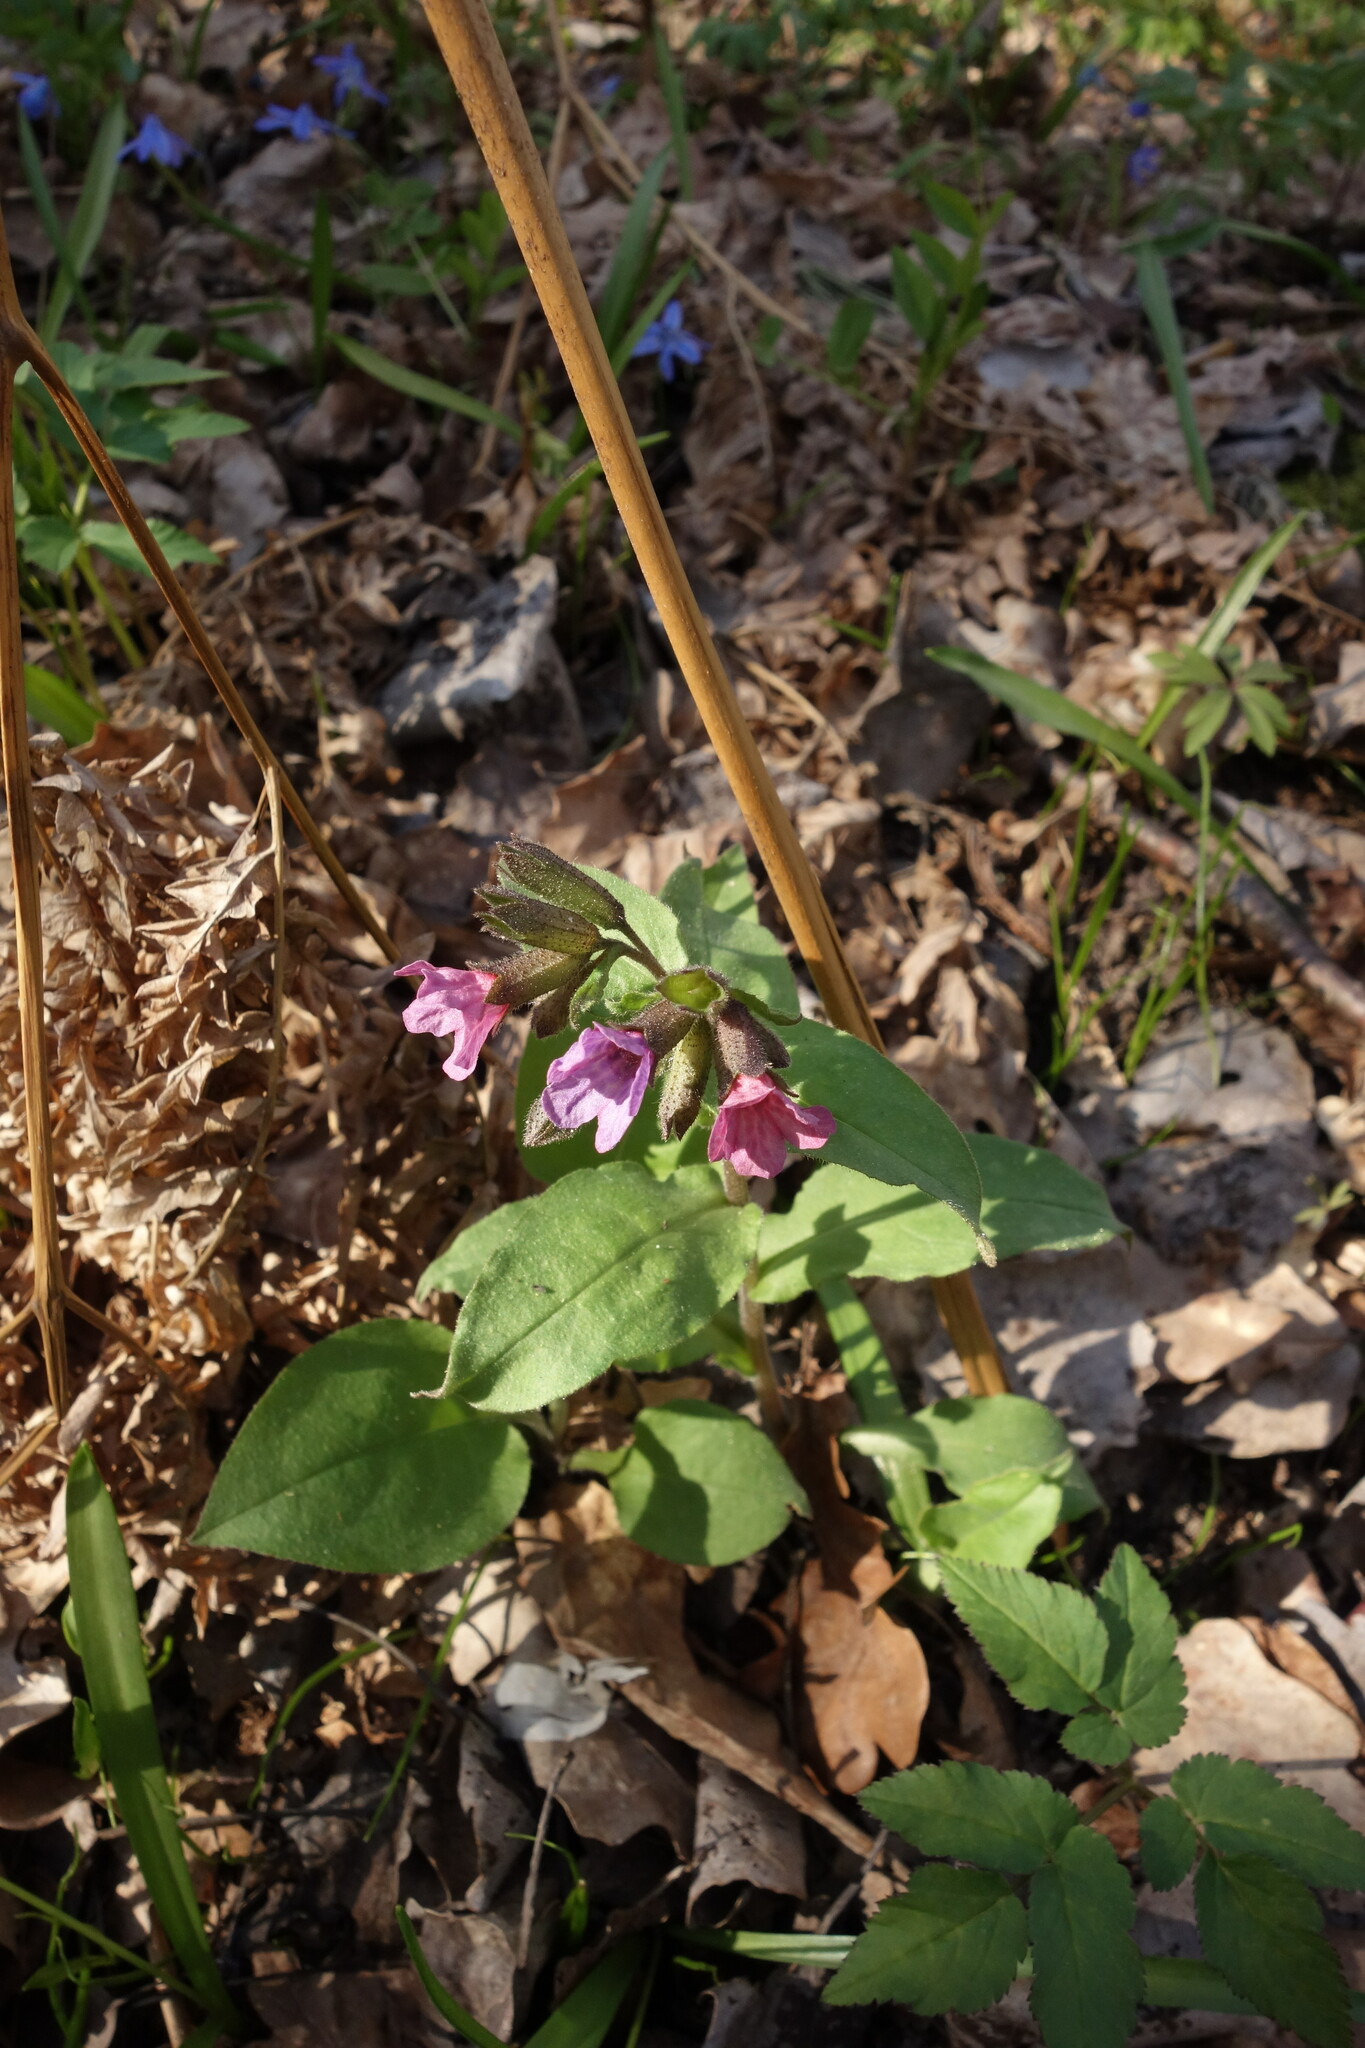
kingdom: Plantae
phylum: Tracheophyta
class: Magnoliopsida
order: Boraginales
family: Boraginaceae
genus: Pulmonaria
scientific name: Pulmonaria obscura
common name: Suffolk lungwort
